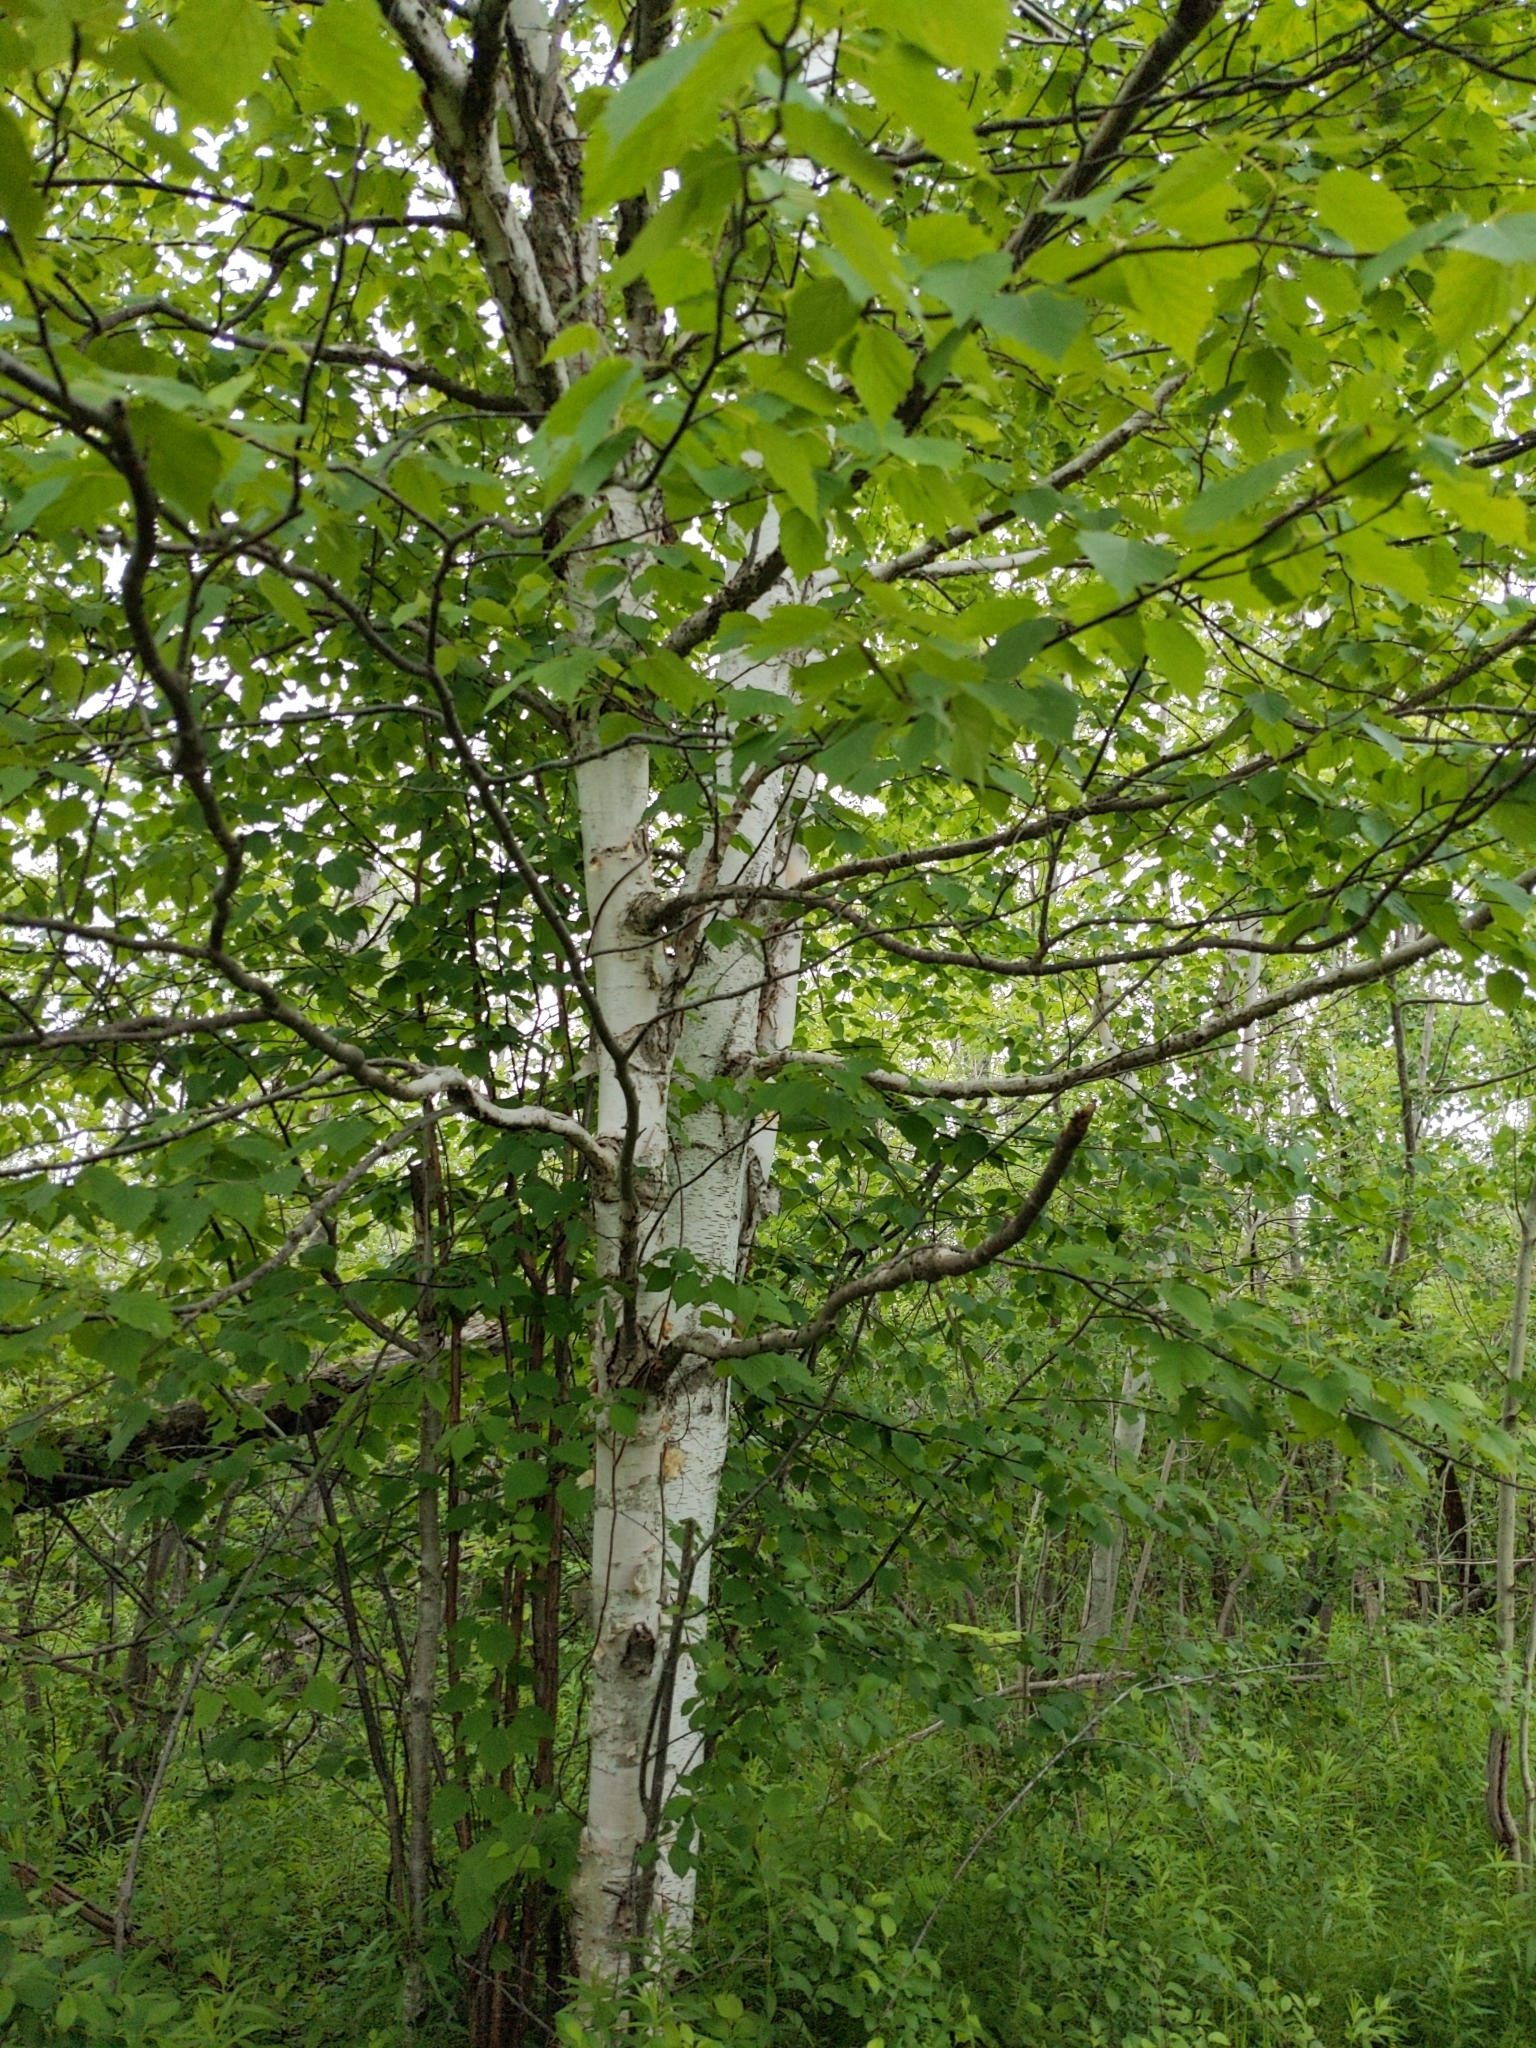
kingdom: Plantae
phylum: Tracheophyta
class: Magnoliopsida
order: Fagales
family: Betulaceae
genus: Betula
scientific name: Betula papyrifera
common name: Paper birch
